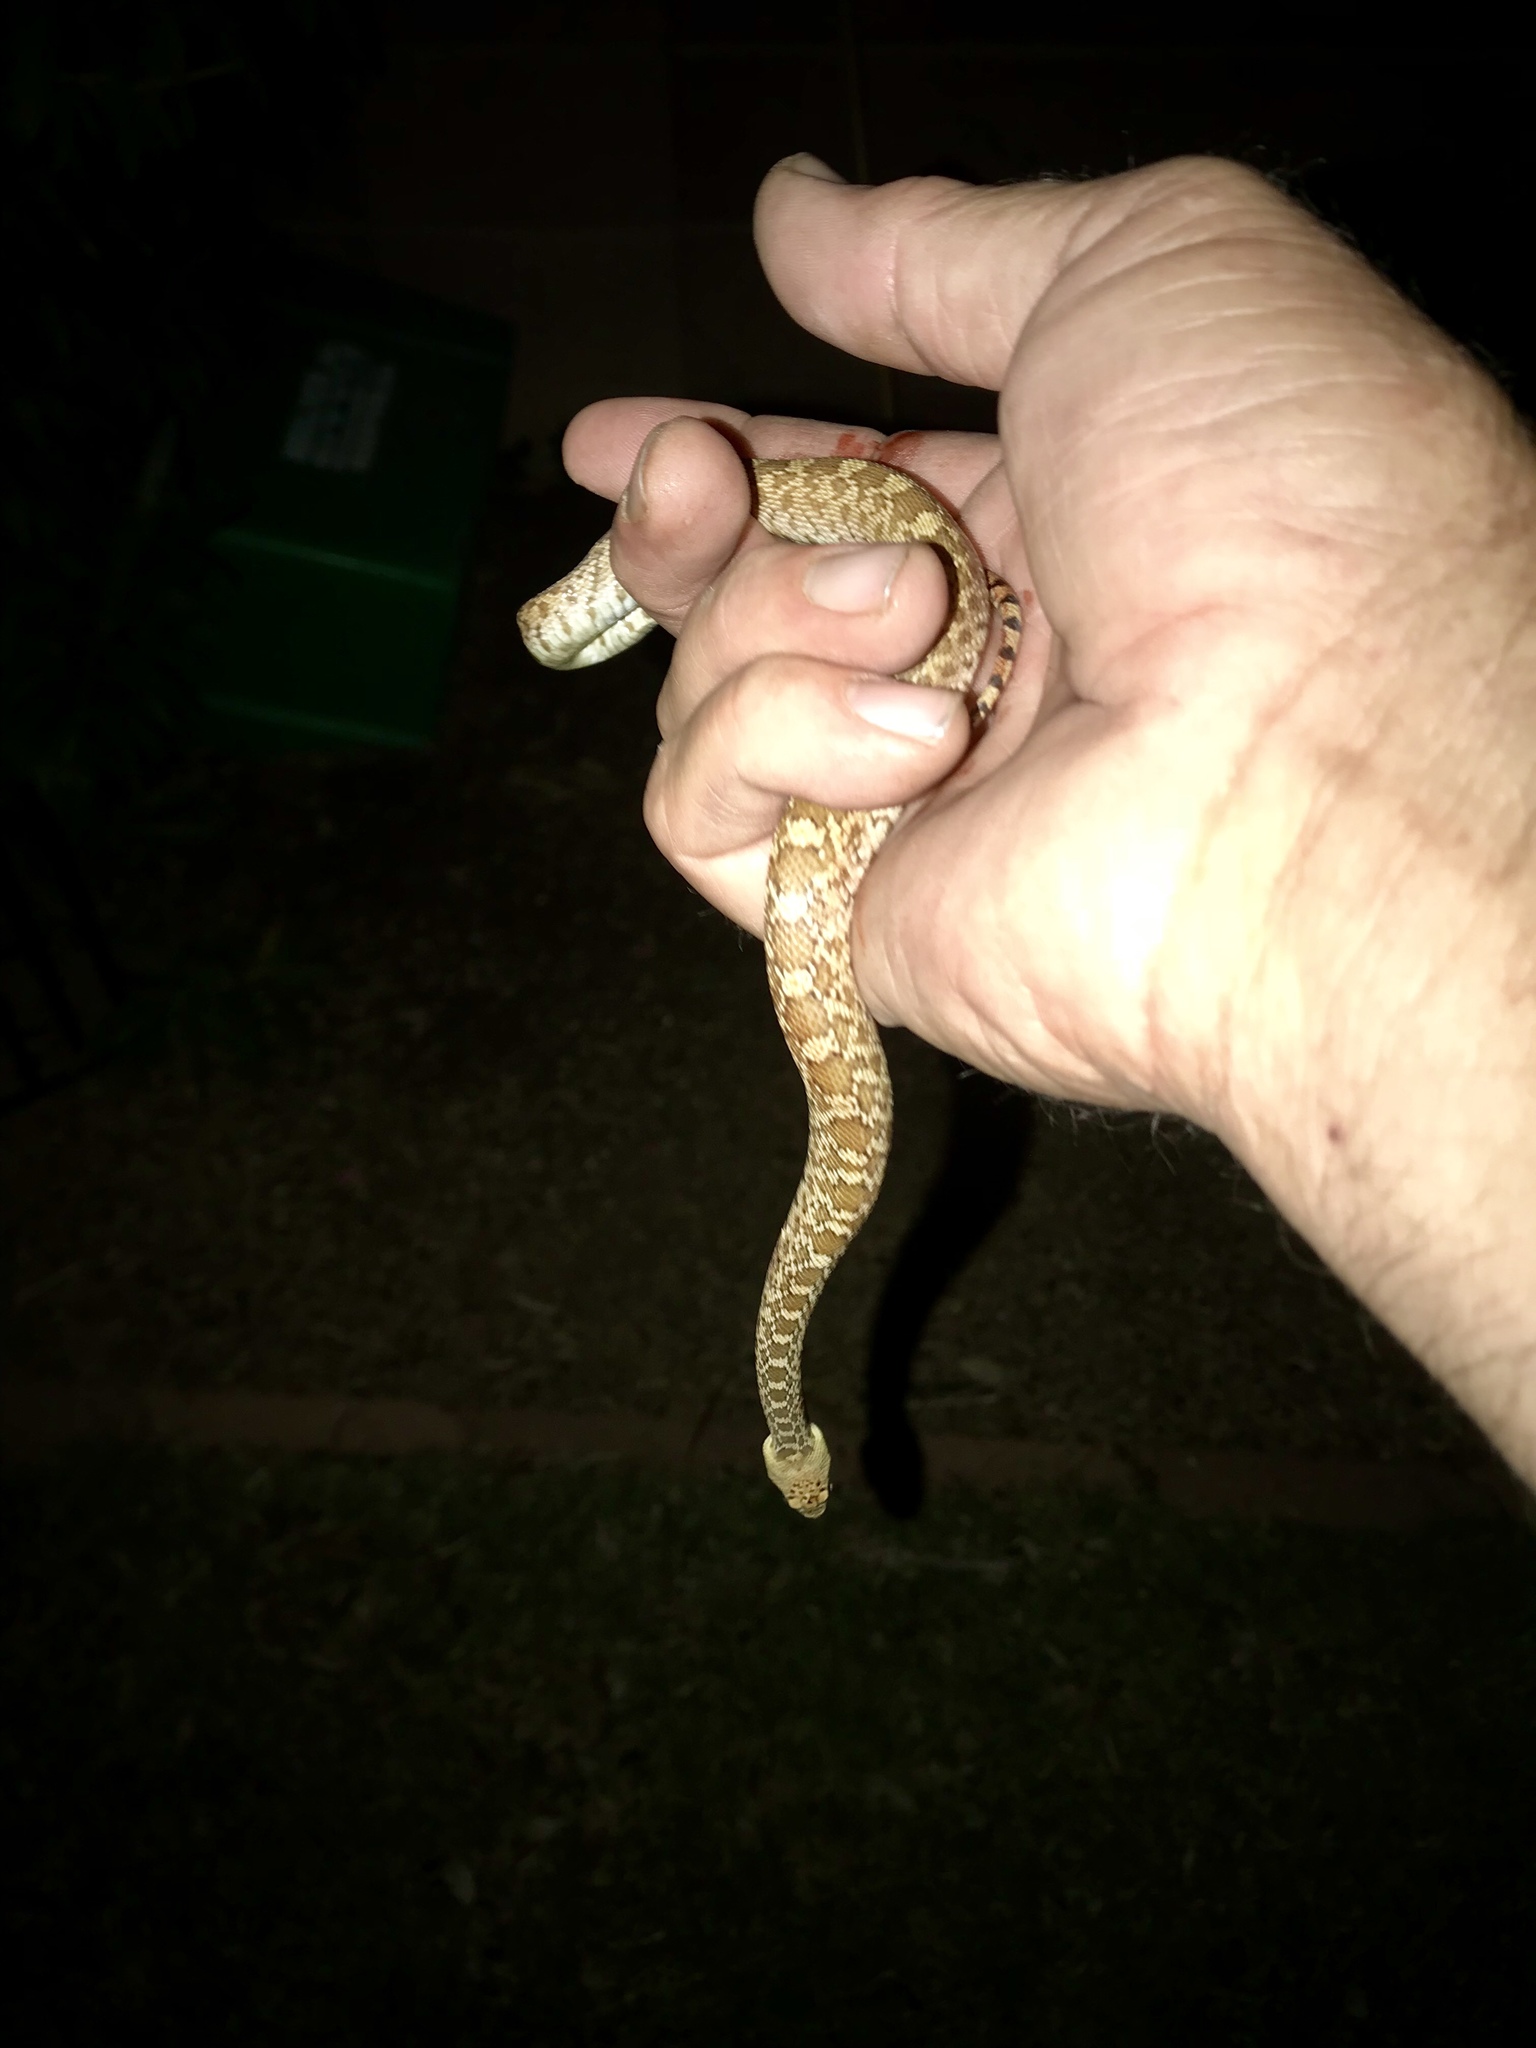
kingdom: Animalia
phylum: Chordata
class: Squamata
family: Colubridae
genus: Pituophis
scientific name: Pituophis catenifer
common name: Gopher snake
